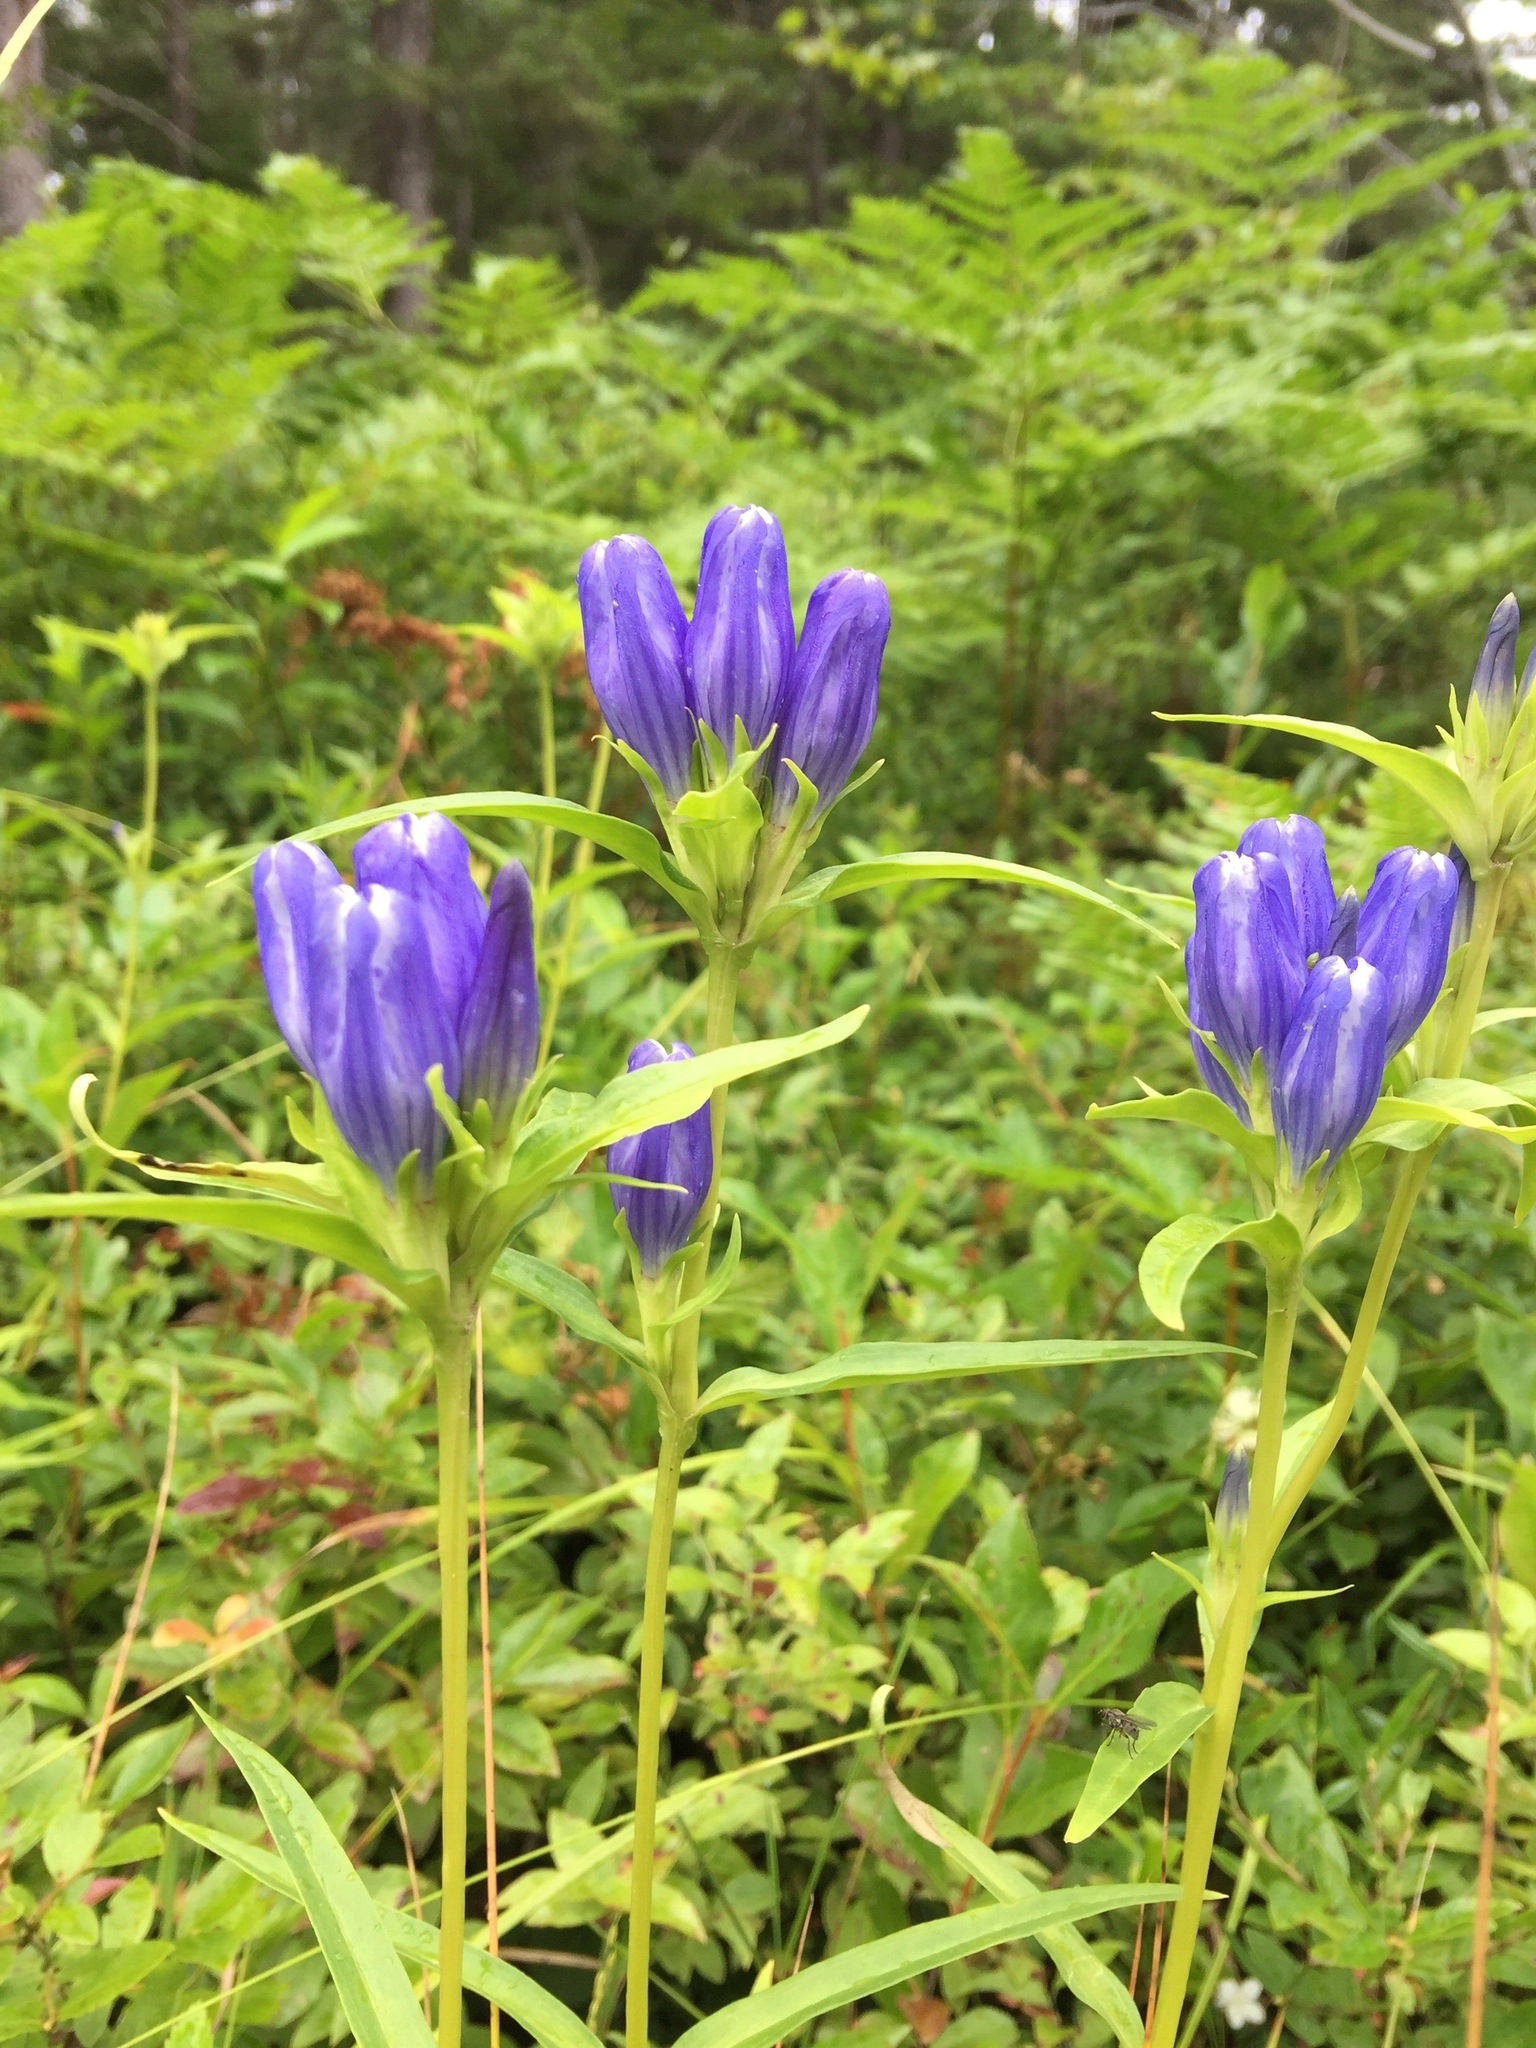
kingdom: Plantae
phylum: Tracheophyta
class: Magnoliopsida
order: Gentianales
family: Gentianaceae
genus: Gentiana
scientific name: Gentiana linearis
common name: Bastard gentian
